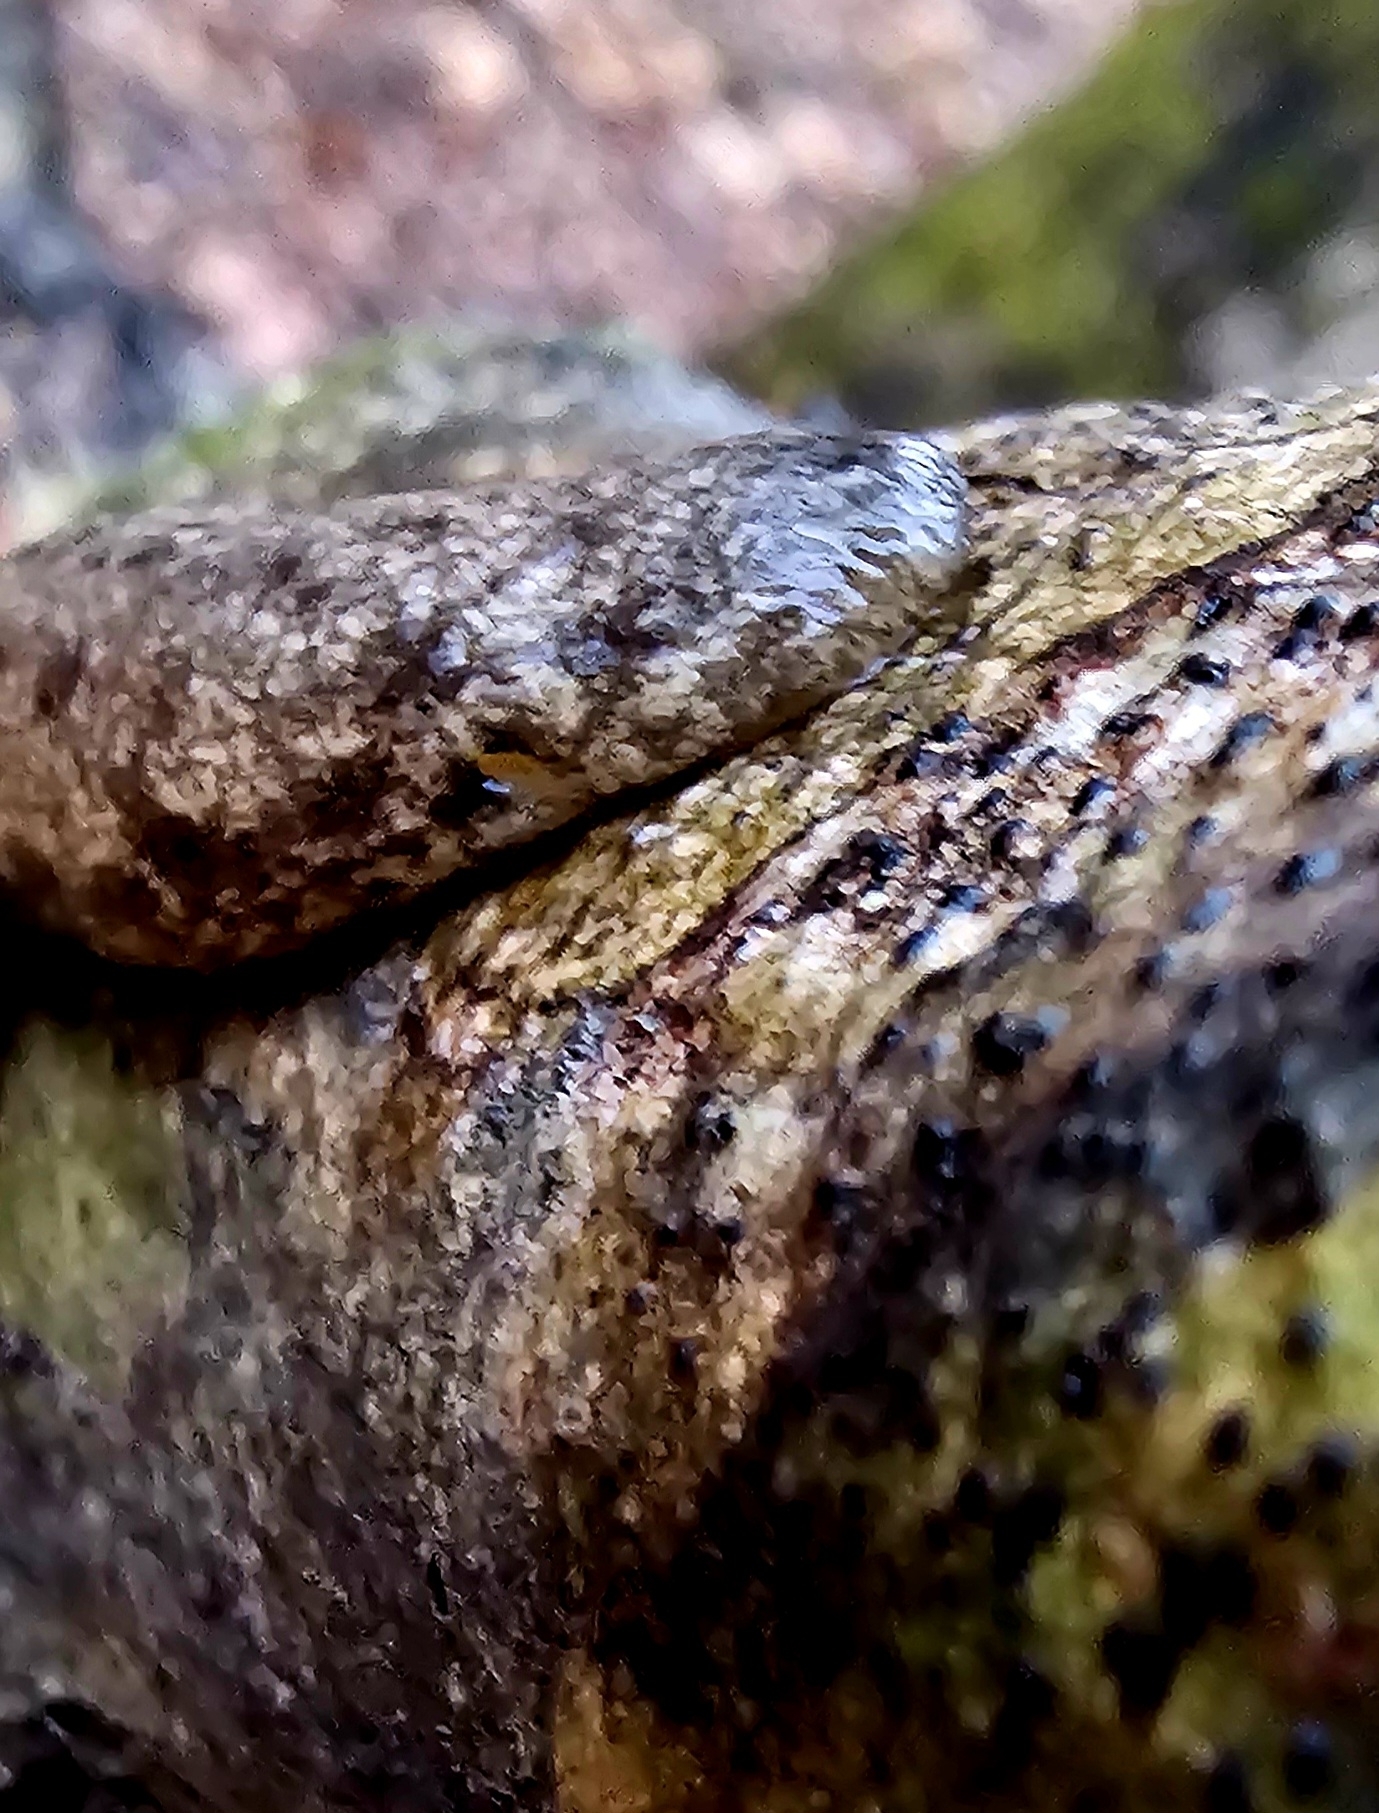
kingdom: Animalia
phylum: Mollusca
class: Gastropoda
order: Stylommatophora
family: Philomycidae
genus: Megapallifera
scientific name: Megapallifera mutabilis
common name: Changeable mantleslug
